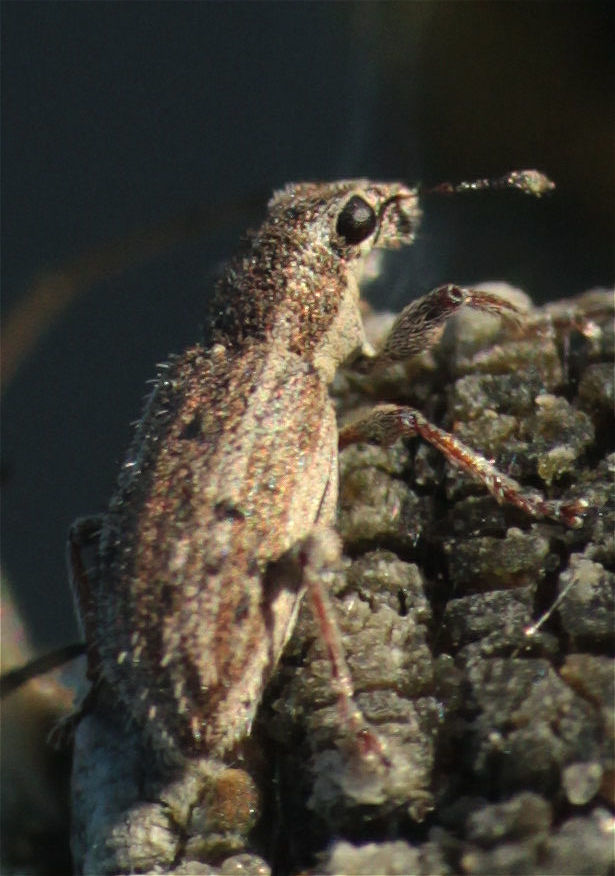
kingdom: Animalia
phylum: Arthropoda
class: Insecta
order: Coleoptera
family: Curculionidae
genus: Sitona
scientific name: Sitona macularius
